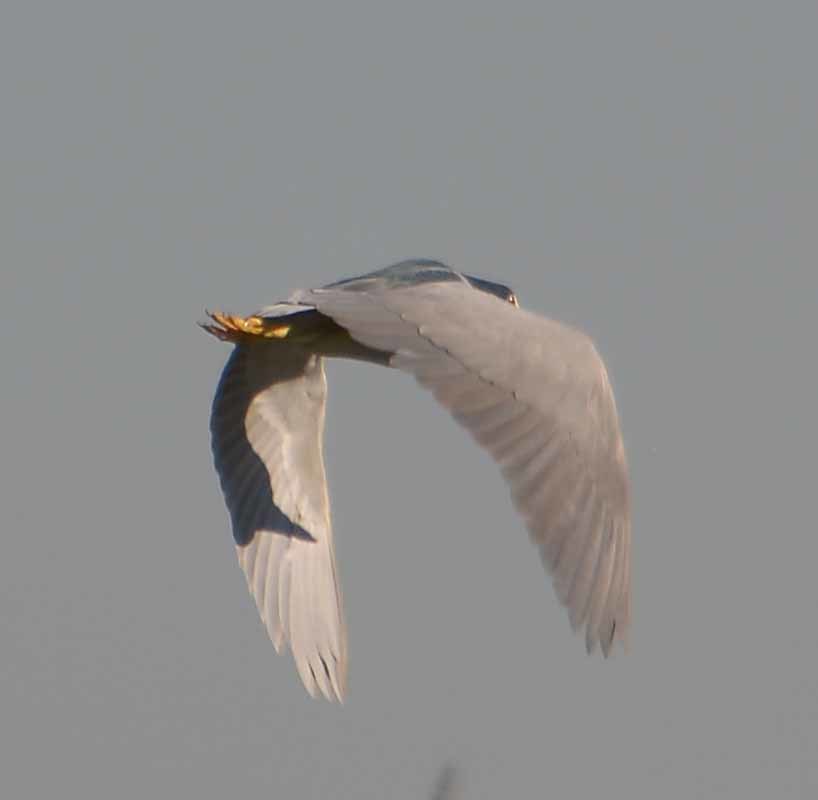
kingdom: Animalia
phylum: Chordata
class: Aves
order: Pelecaniformes
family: Ardeidae
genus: Nycticorax
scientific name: Nycticorax nycticorax
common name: Black-crowned night heron
